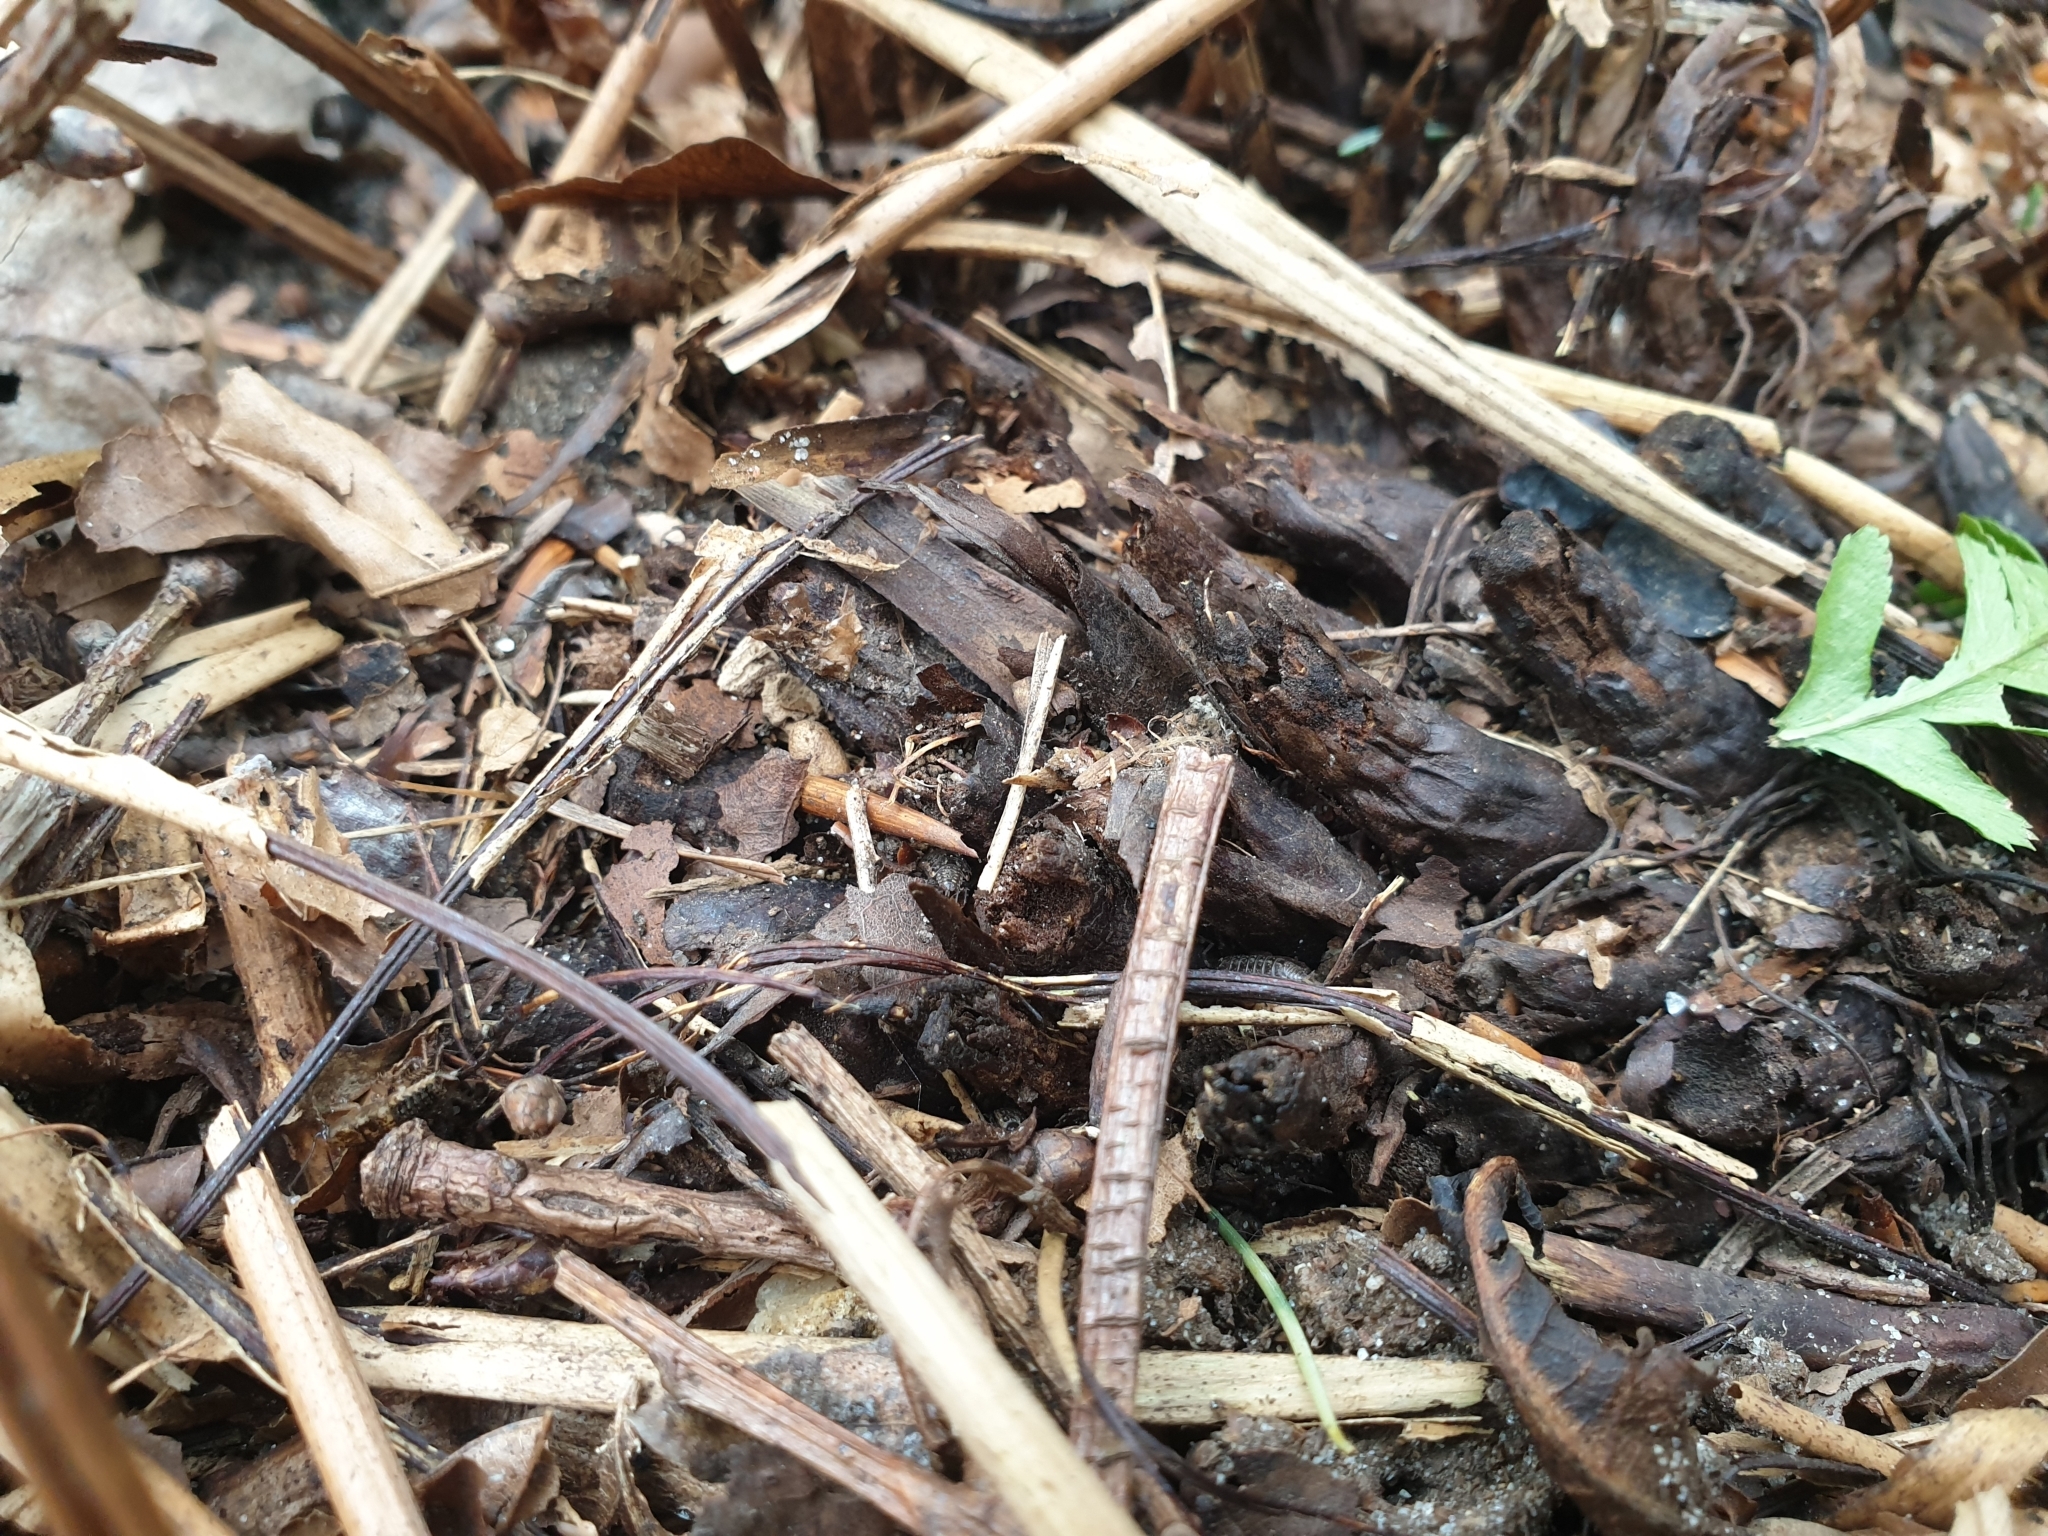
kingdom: Plantae
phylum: Tracheophyta
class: Polypodiopsida
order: Polypodiales
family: Dryopteridaceae
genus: Dryopteris
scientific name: Dryopteris filix-mas
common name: Male fern
